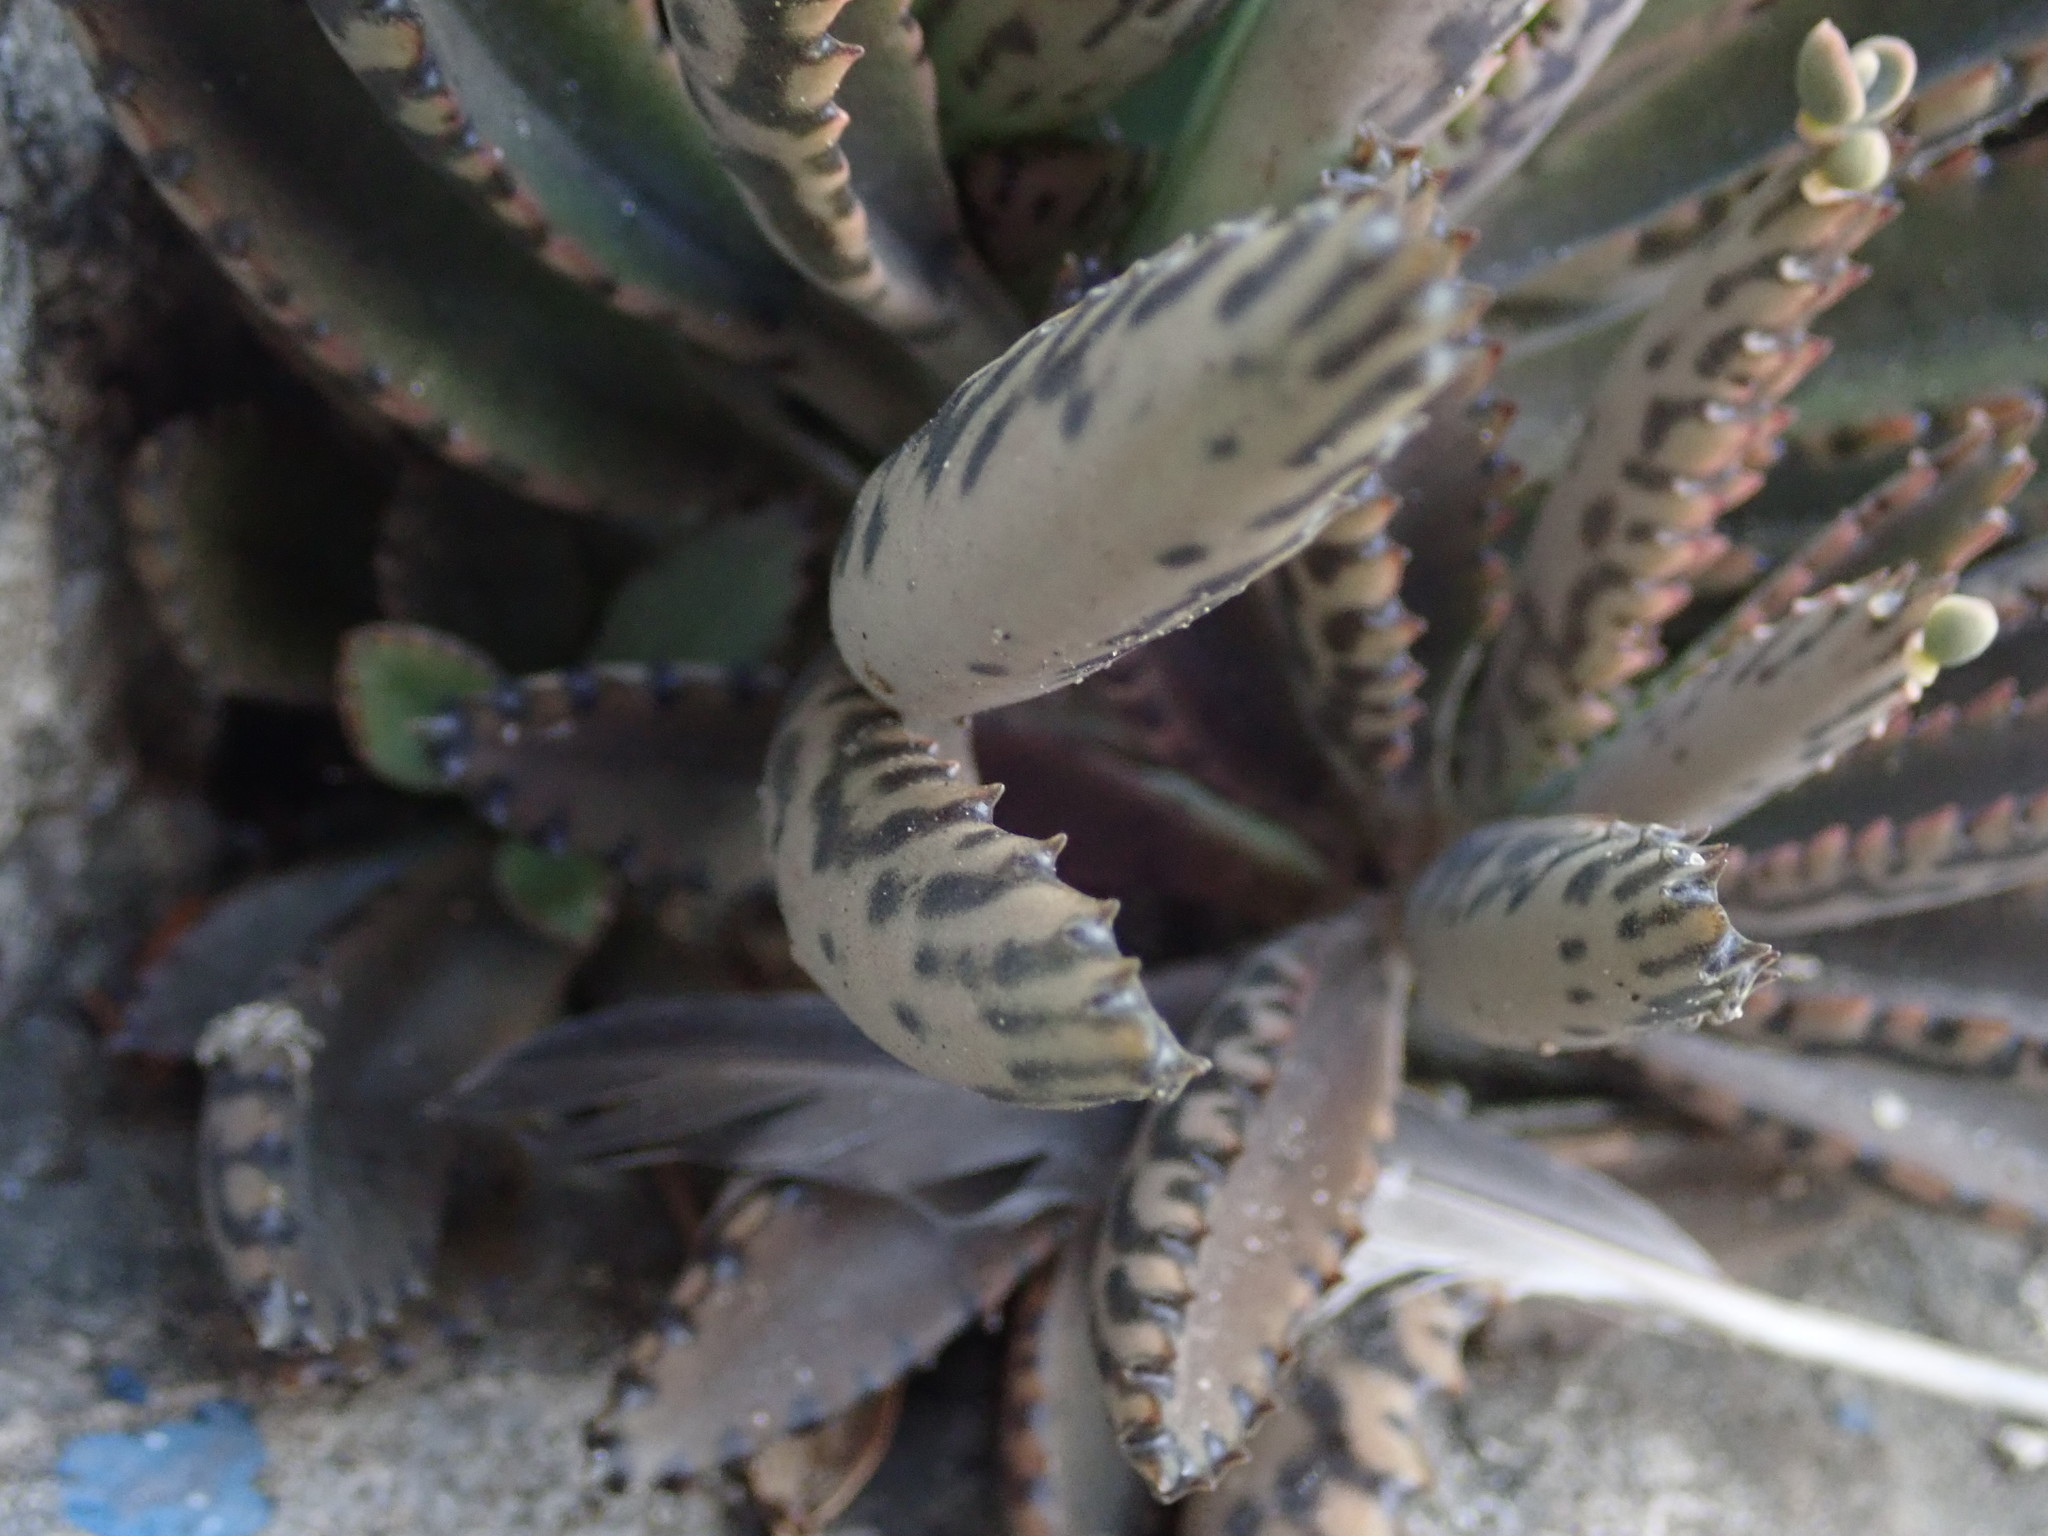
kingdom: Plantae
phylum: Tracheophyta
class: Magnoliopsida
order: Saxifragales
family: Crassulaceae
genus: Kalanchoe
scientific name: Kalanchoe houghtonii
